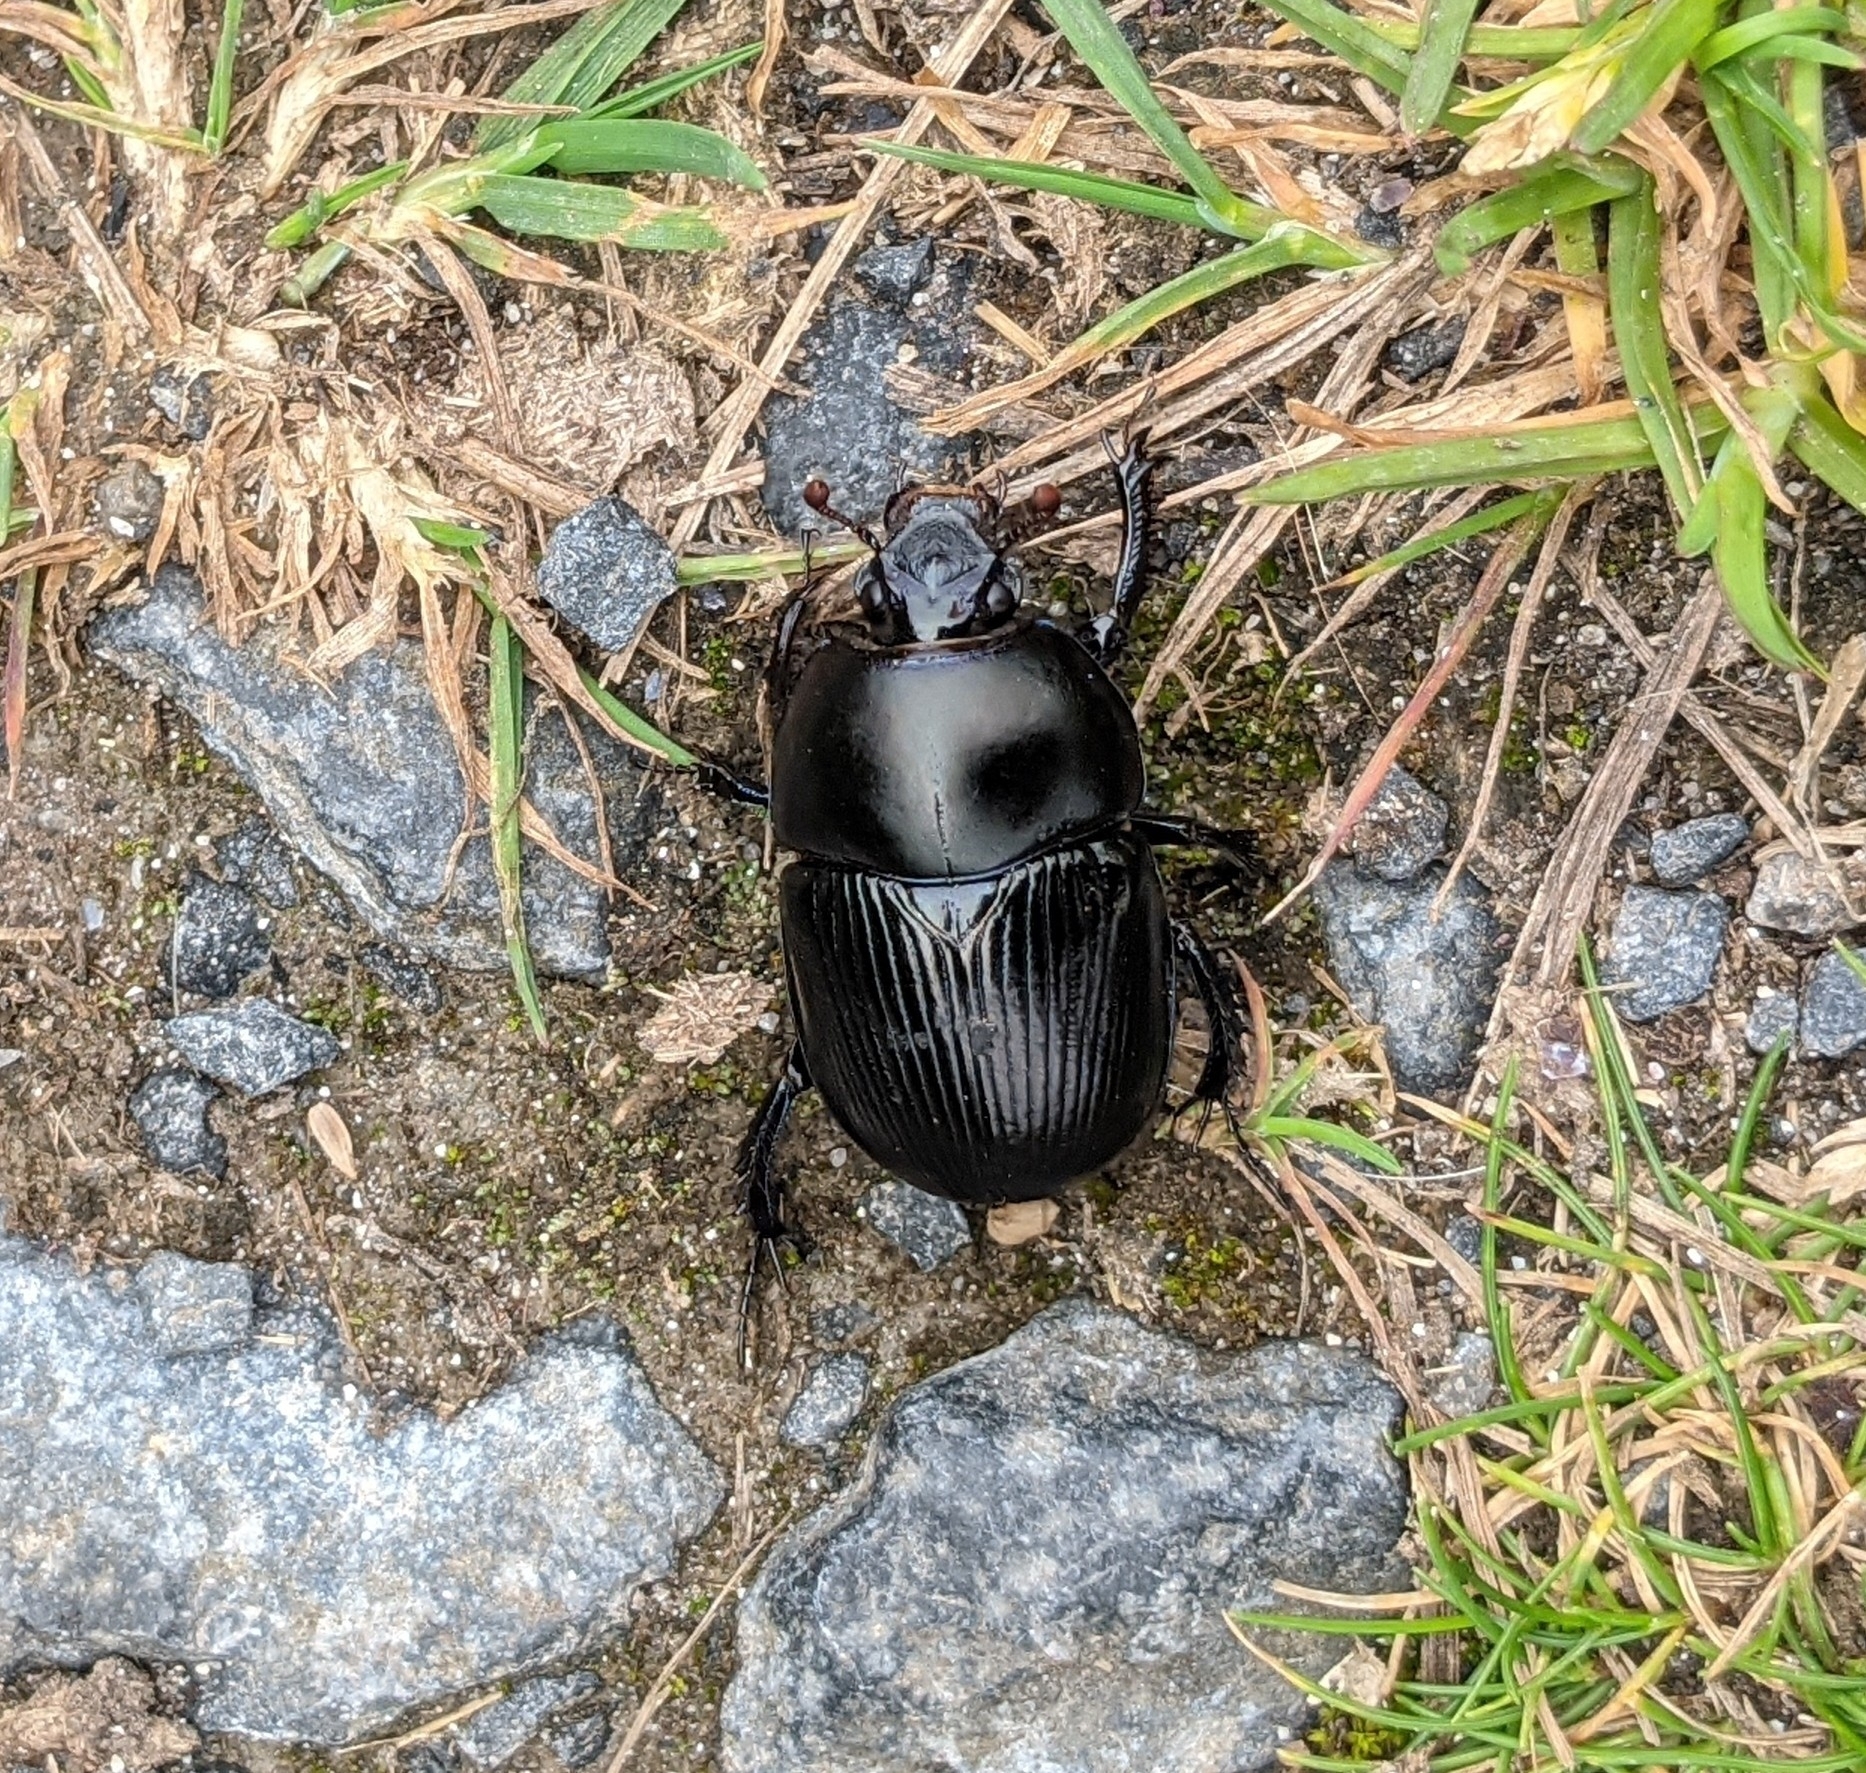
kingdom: Animalia
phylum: Arthropoda
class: Insecta
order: Coleoptera
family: Geotrupidae
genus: Geotrupes
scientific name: Geotrupes spiniger
